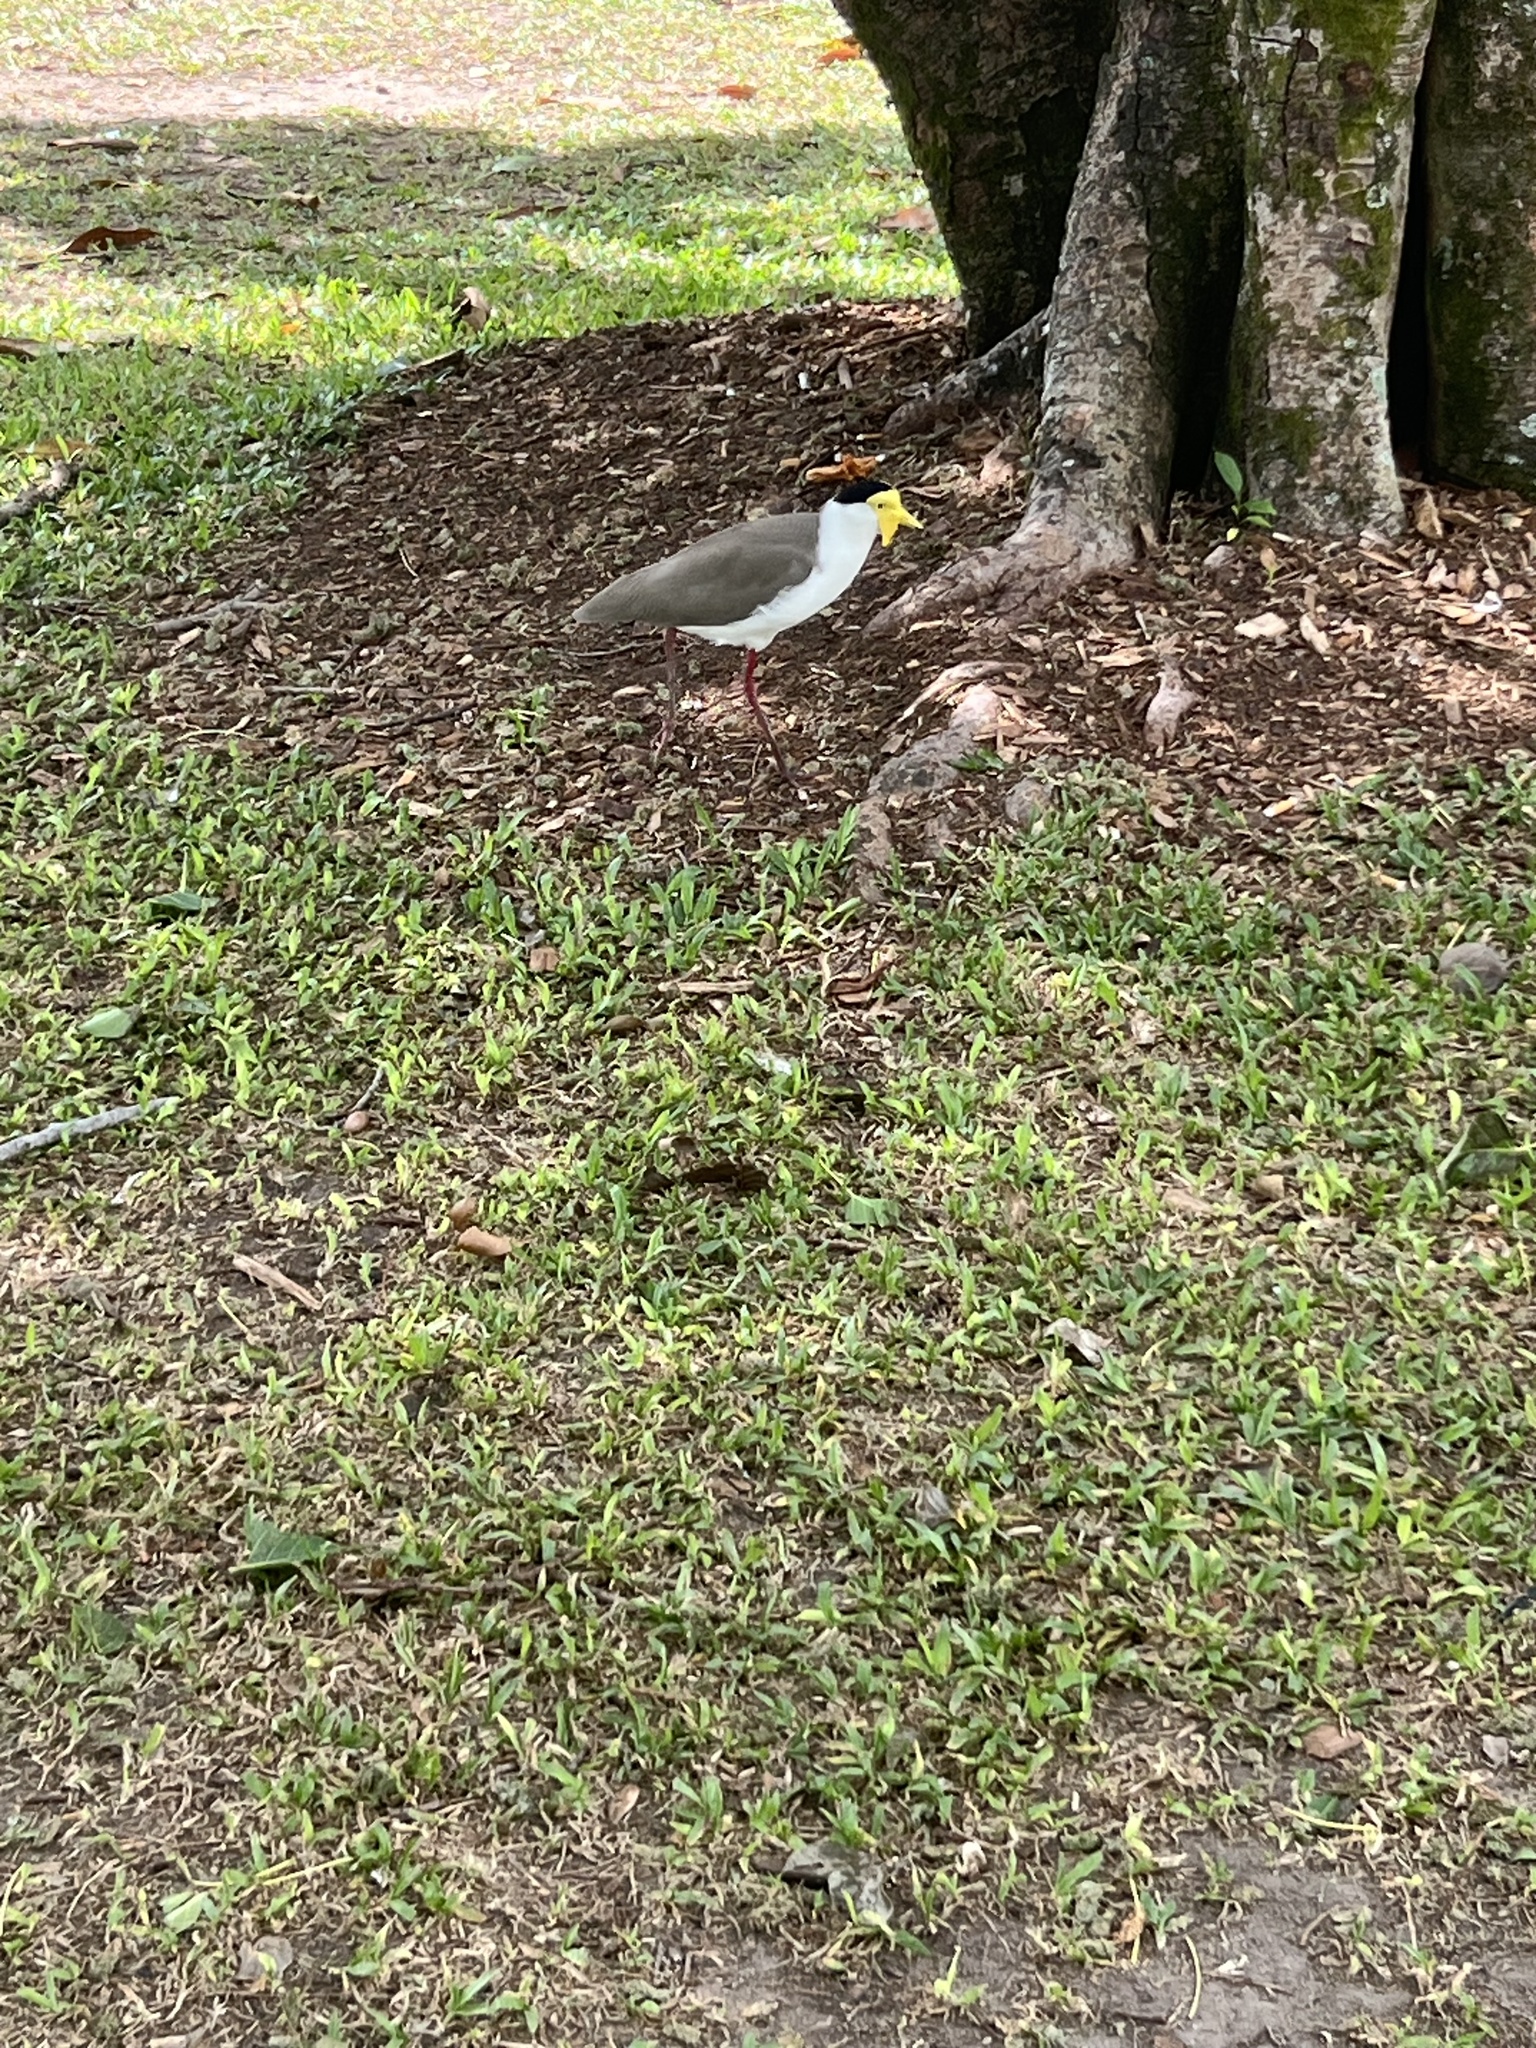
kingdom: Animalia
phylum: Chordata
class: Aves
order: Charadriiformes
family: Charadriidae
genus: Vanellus
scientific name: Vanellus miles
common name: Masked lapwing
